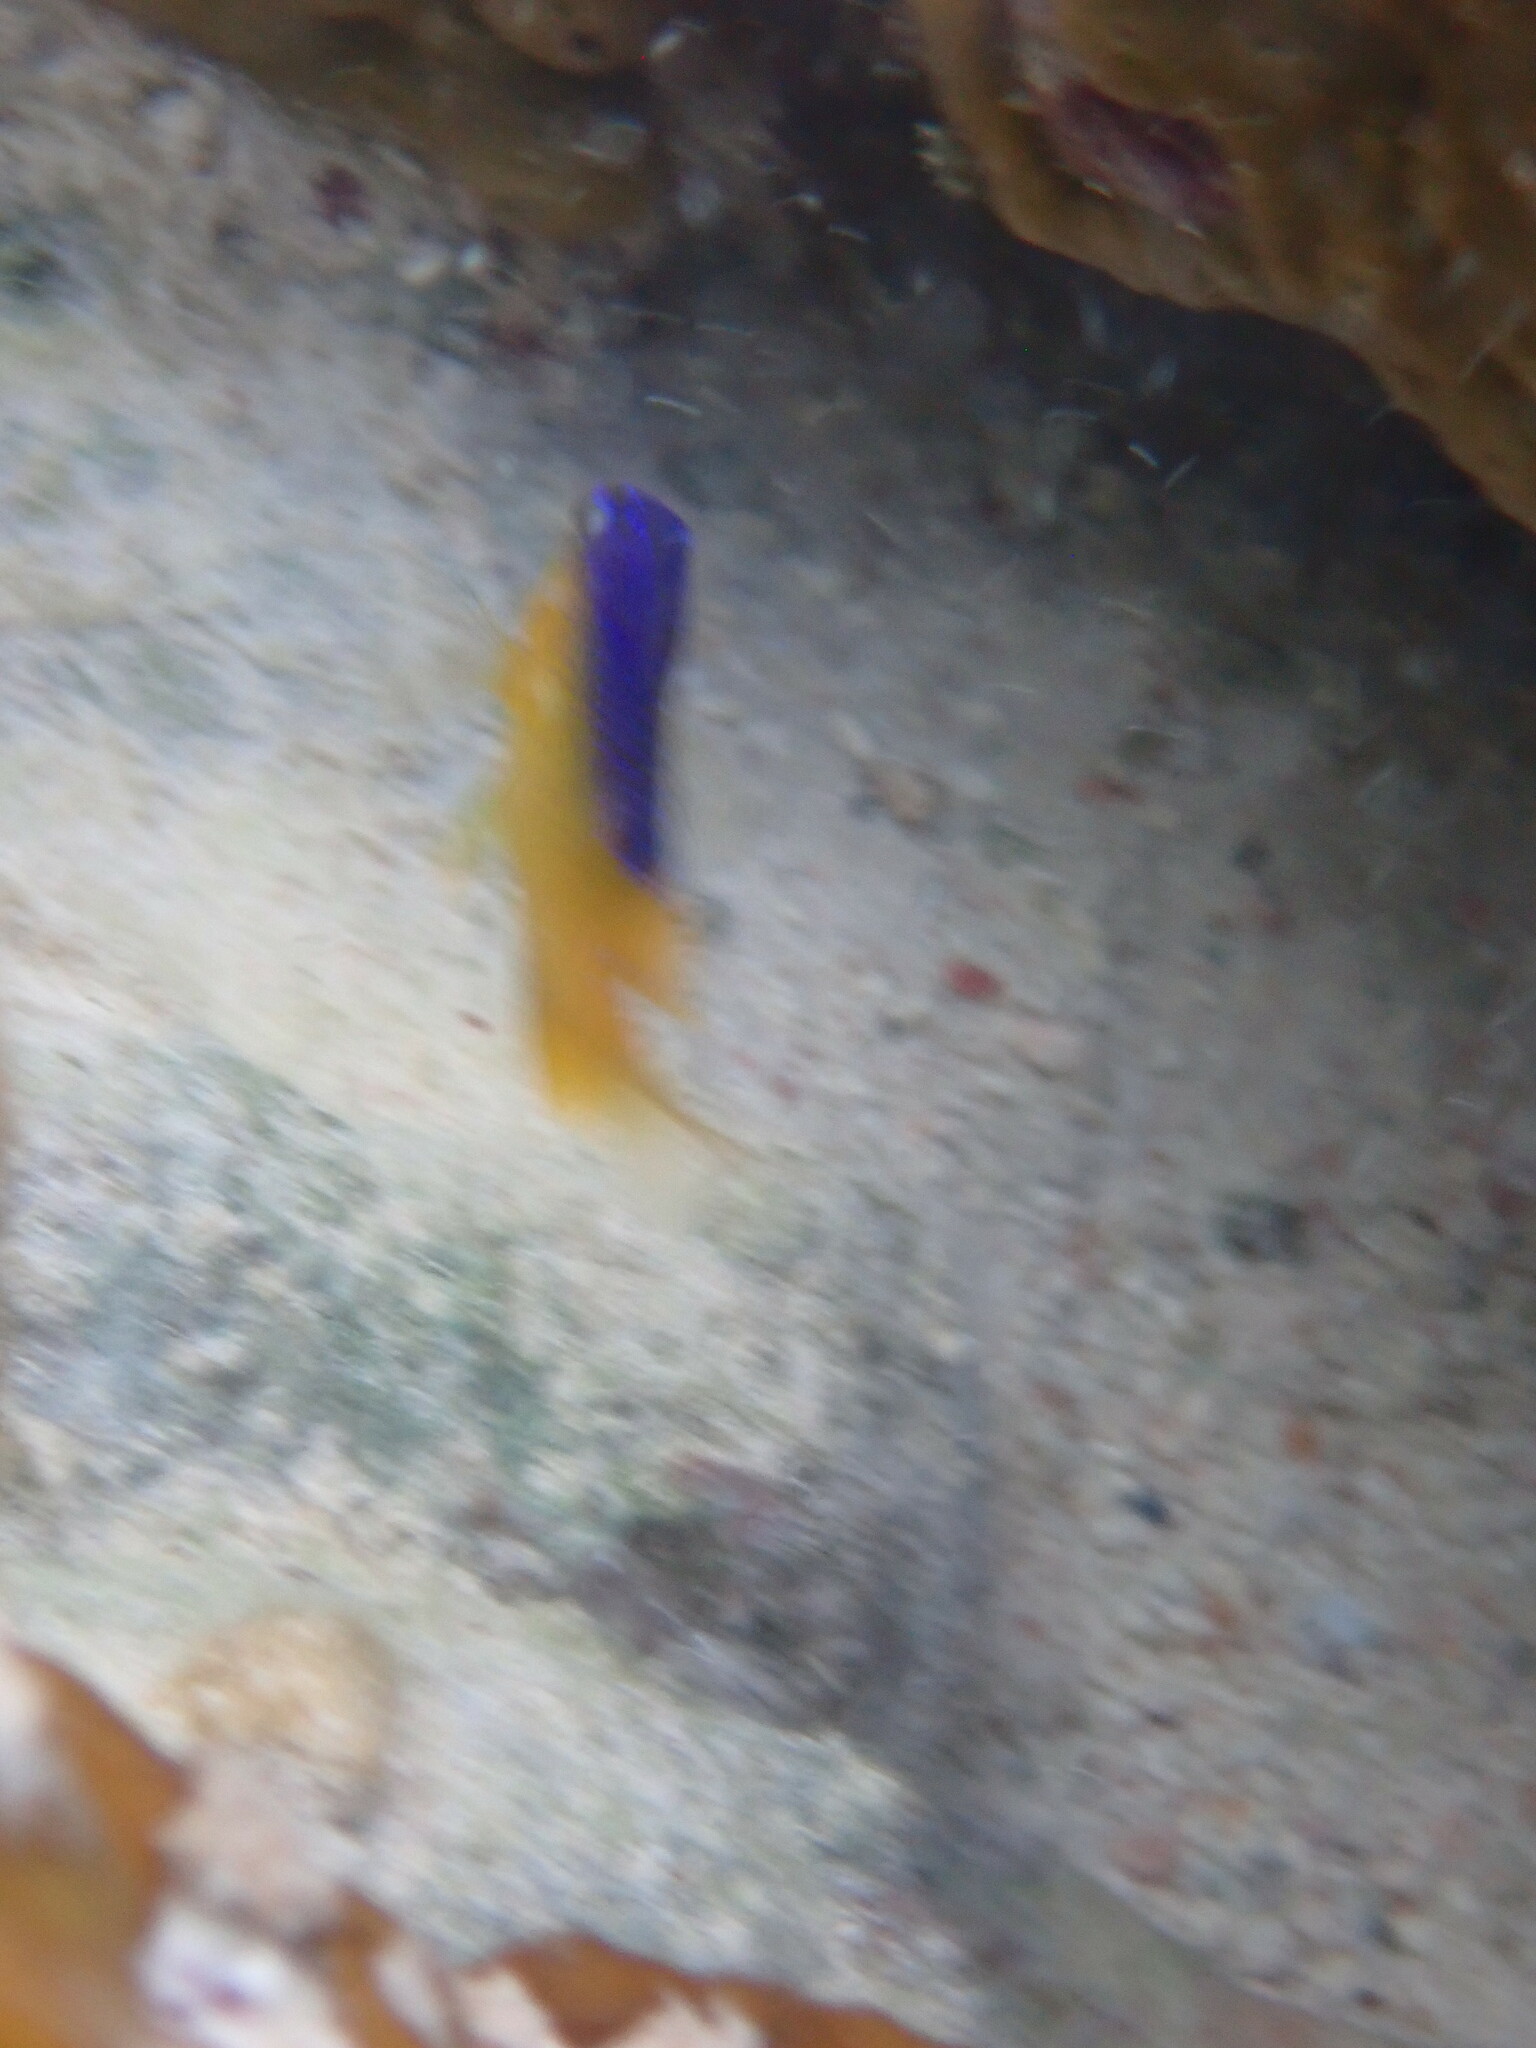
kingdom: Animalia
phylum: Chordata
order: Perciformes
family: Pomacentridae
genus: Stegastes
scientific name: Stegastes leucostictus
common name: Beaugregory
